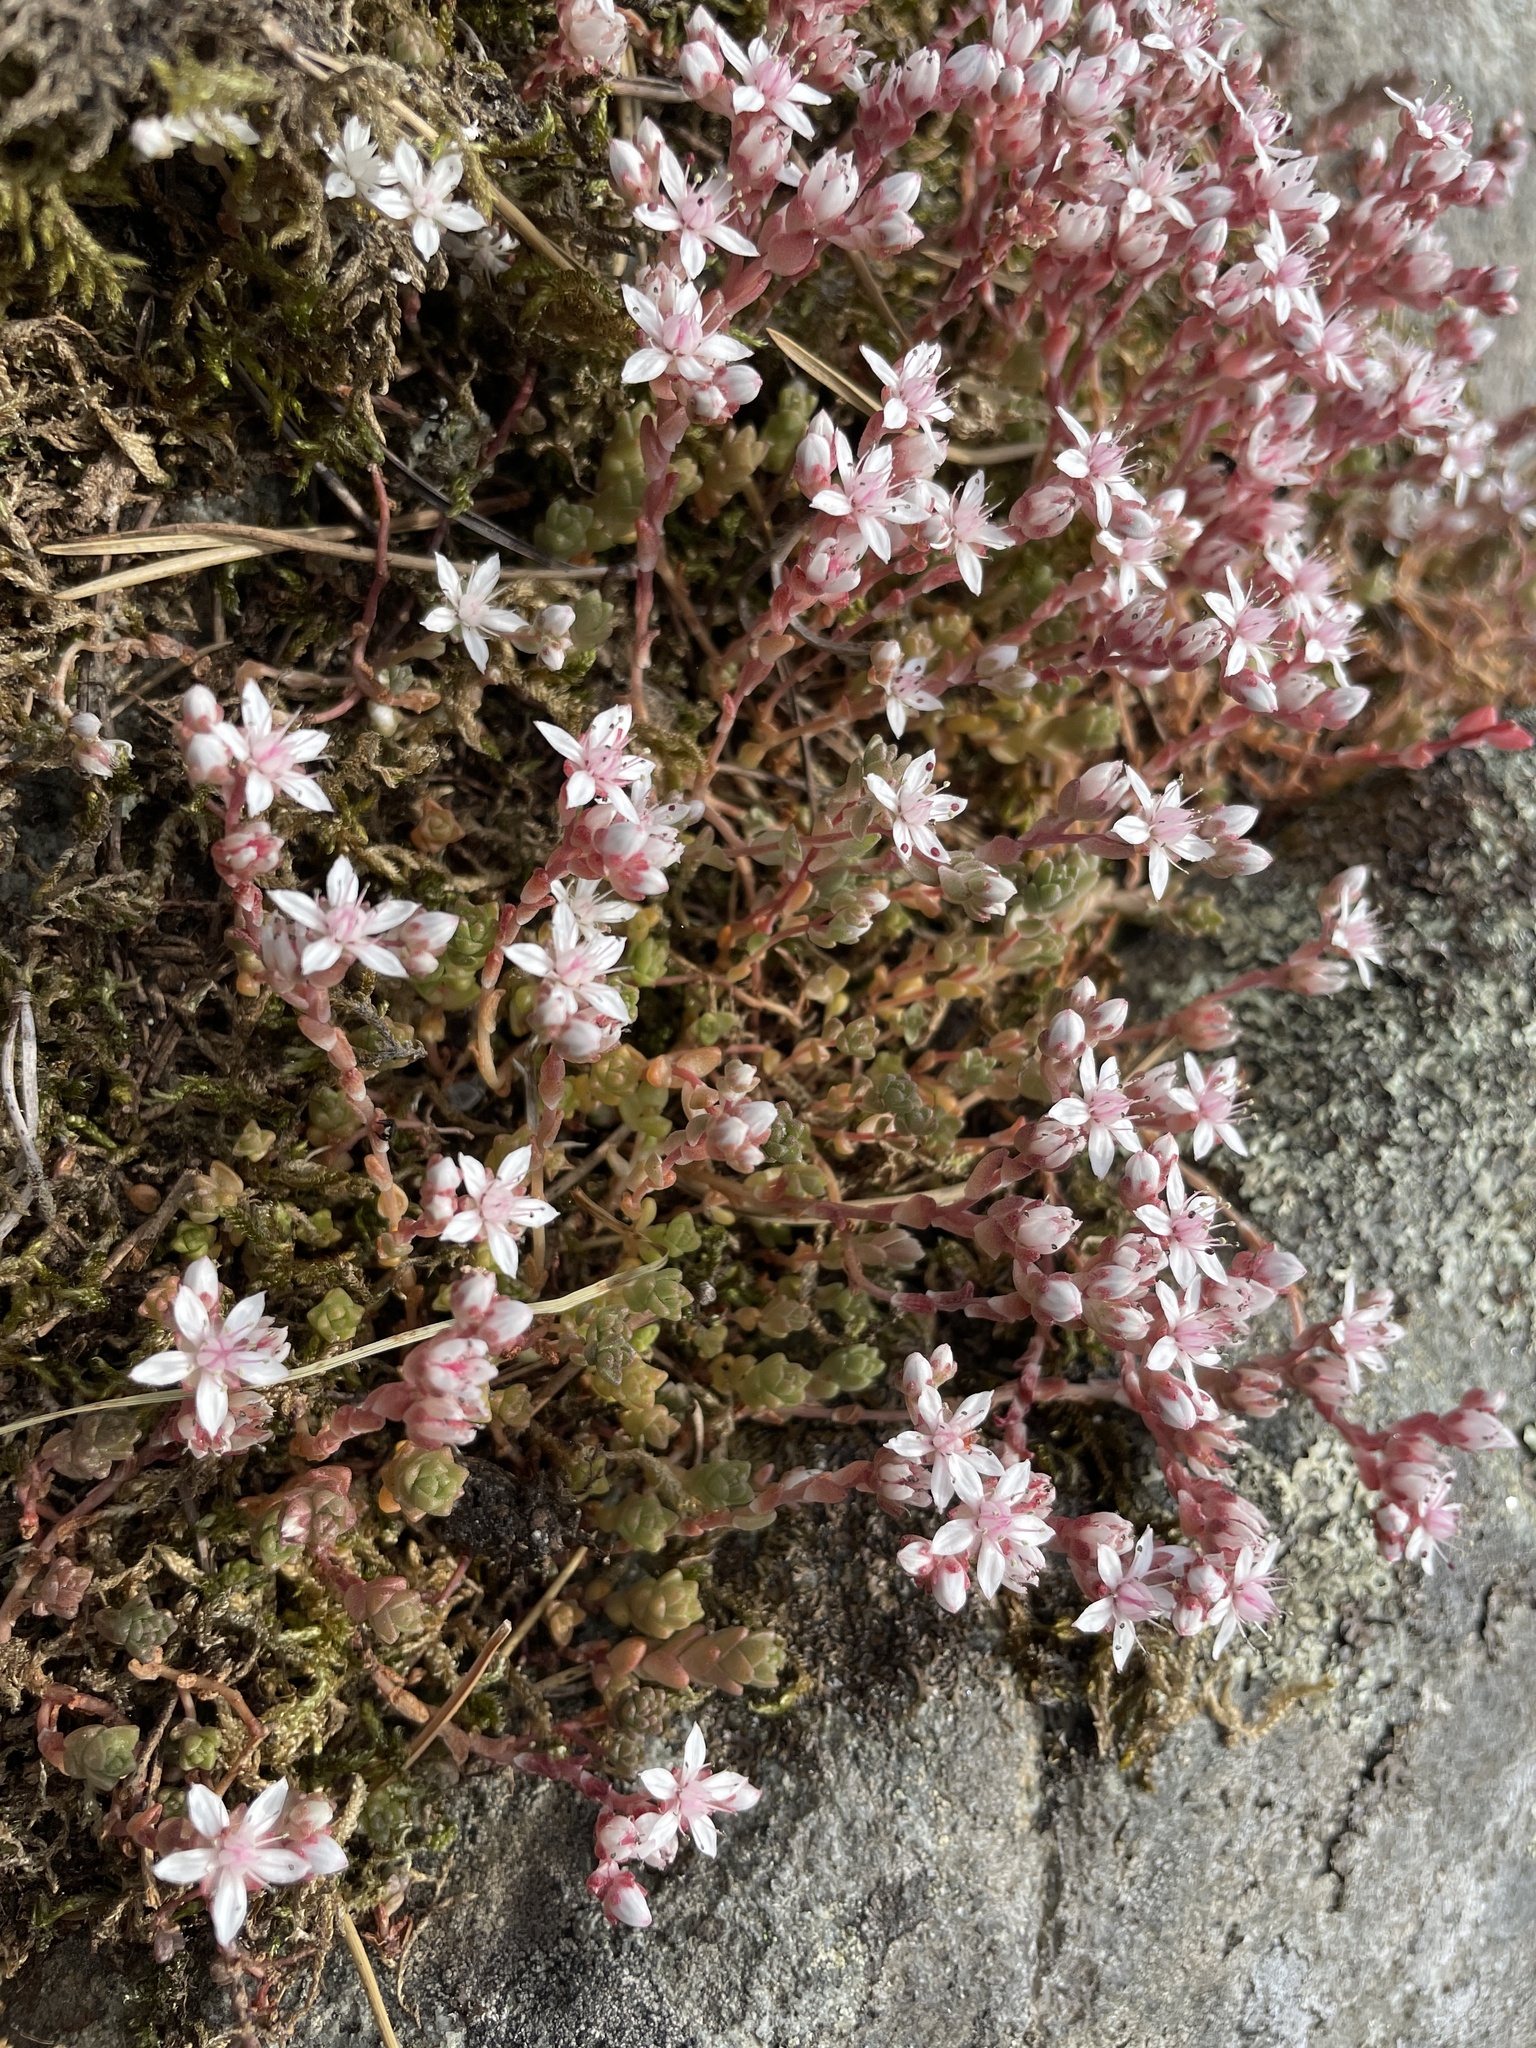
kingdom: Plantae
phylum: Tracheophyta
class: Magnoliopsida
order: Saxifragales
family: Crassulaceae
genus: Sedum
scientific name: Sedum anglicum
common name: English stonecrop
